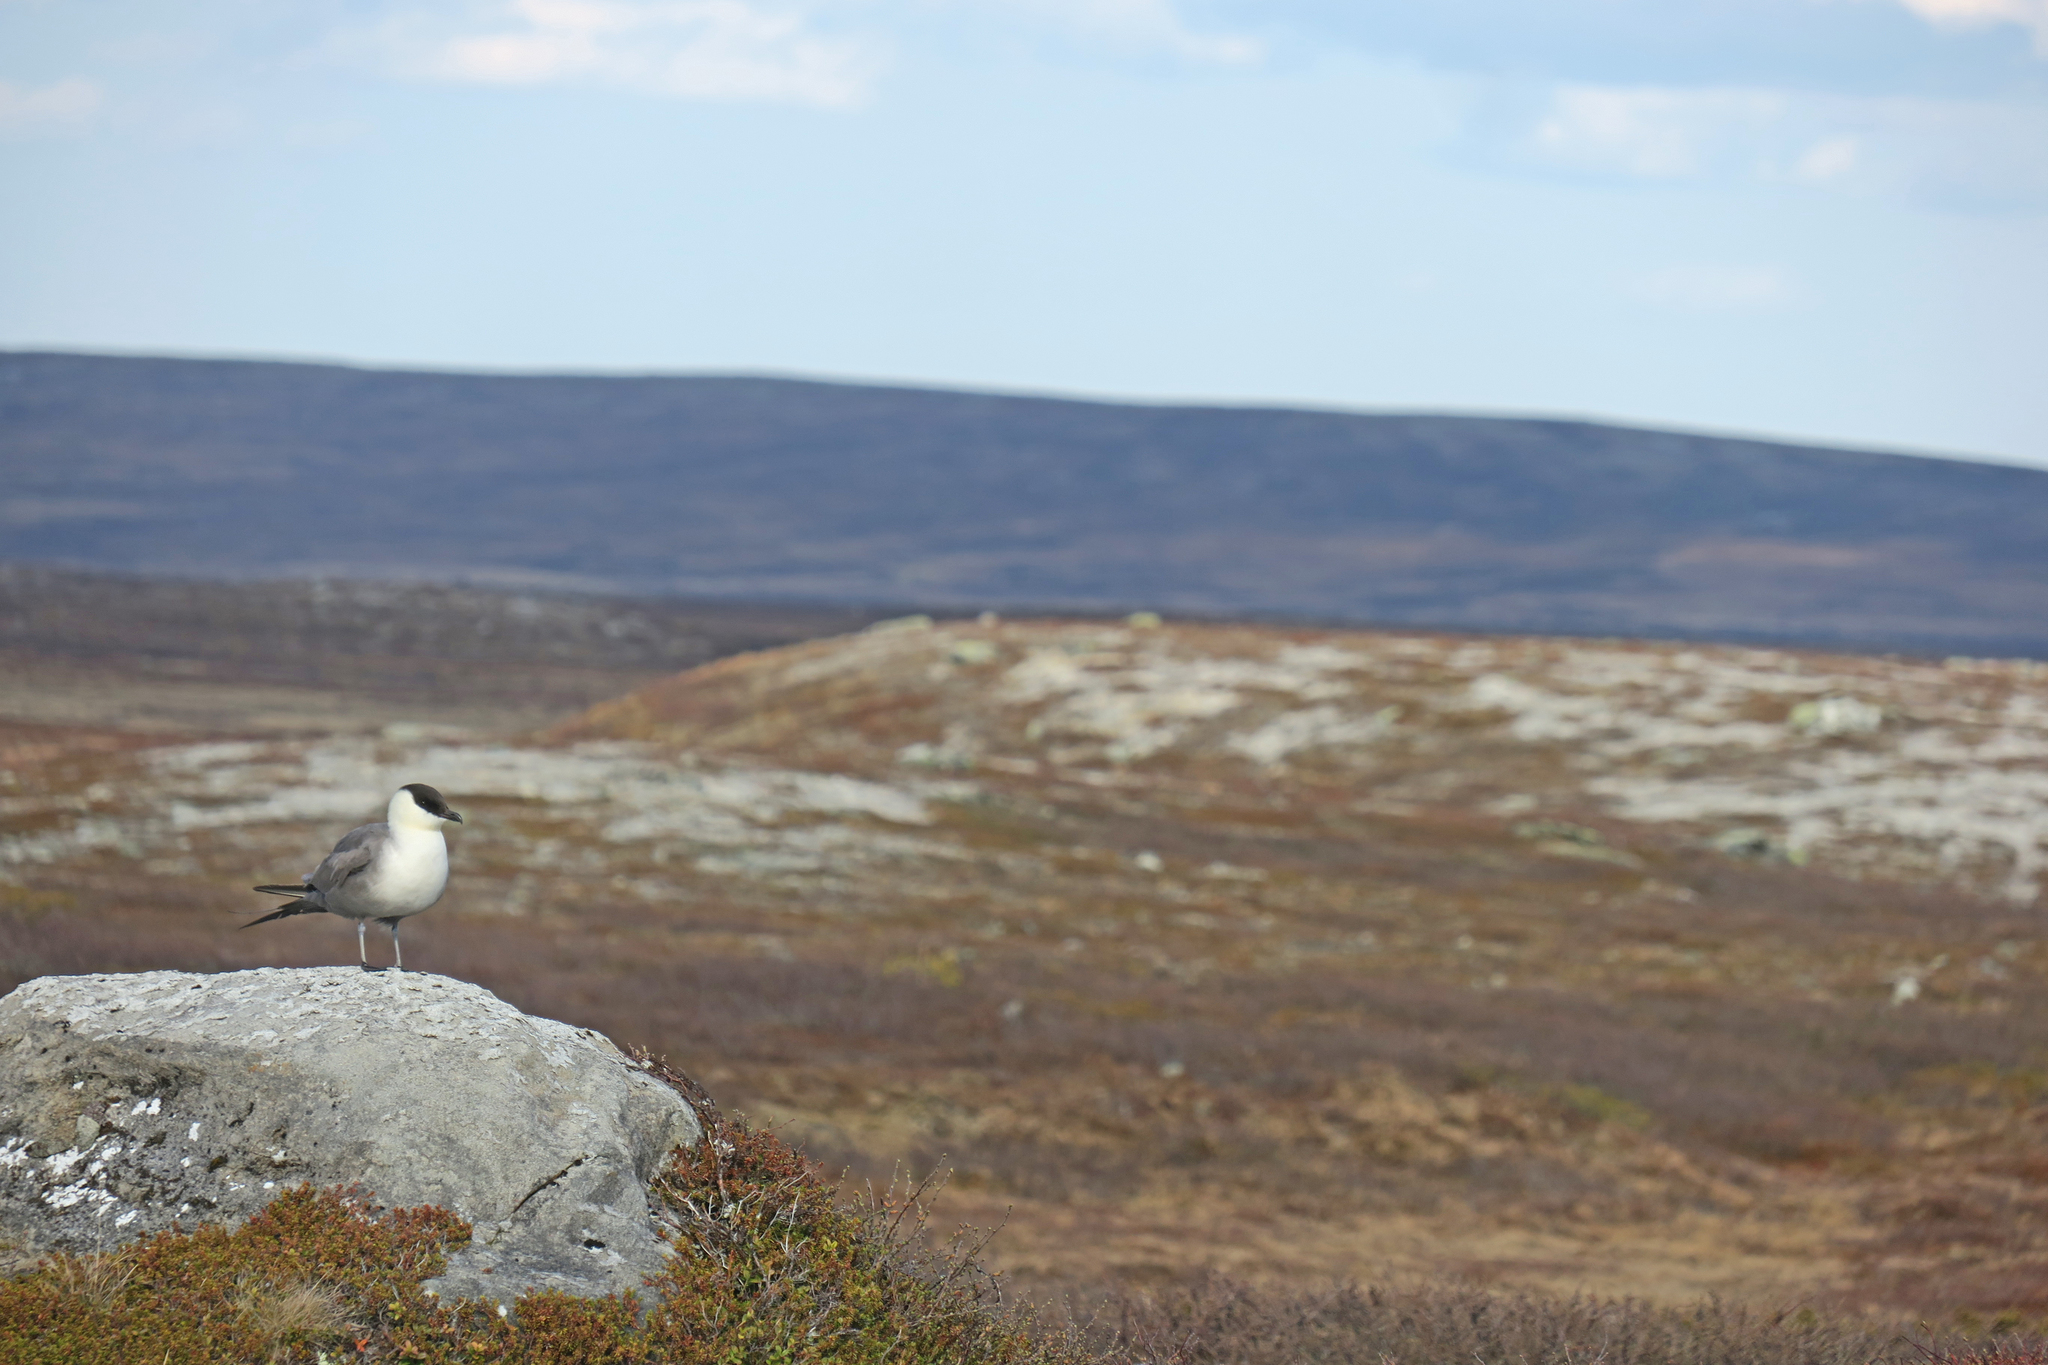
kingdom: Animalia
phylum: Chordata
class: Aves
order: Charadriiformes
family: Stercorariidae
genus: Stercorarius
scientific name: Stercorarius longicaudus
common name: Long-tailed jaeger
